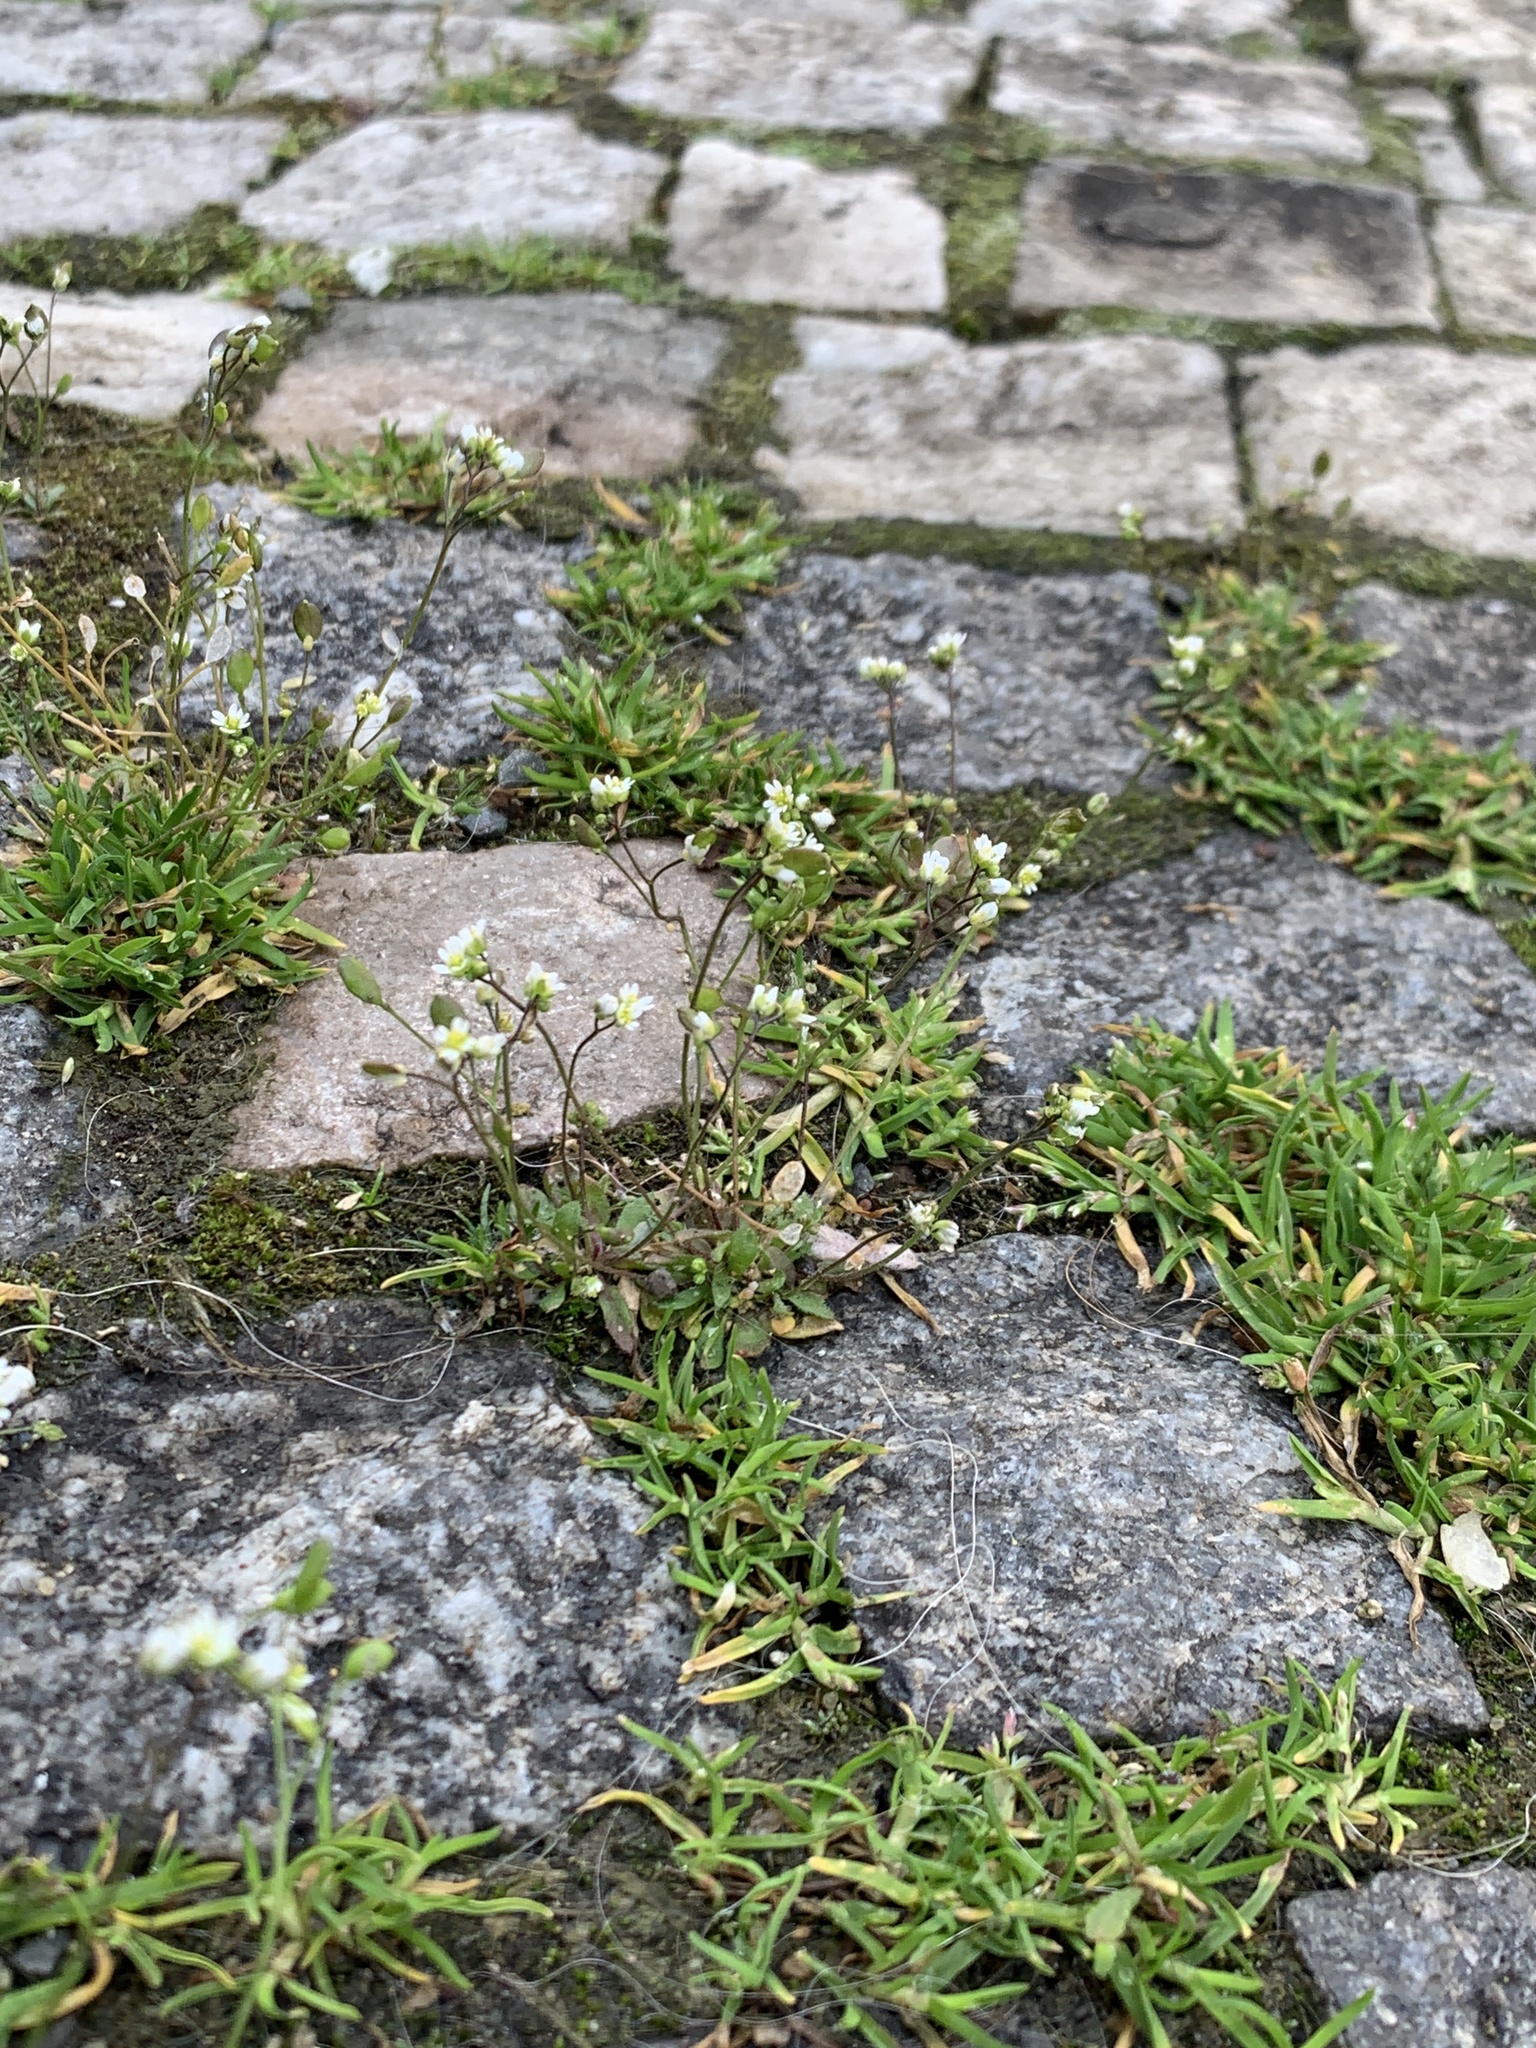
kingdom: Plantae
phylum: Tracheophyta
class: Magnoliopsida
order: Brassicales
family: Brassicaceae
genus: Draba
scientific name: Draba verna
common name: Spring draba
